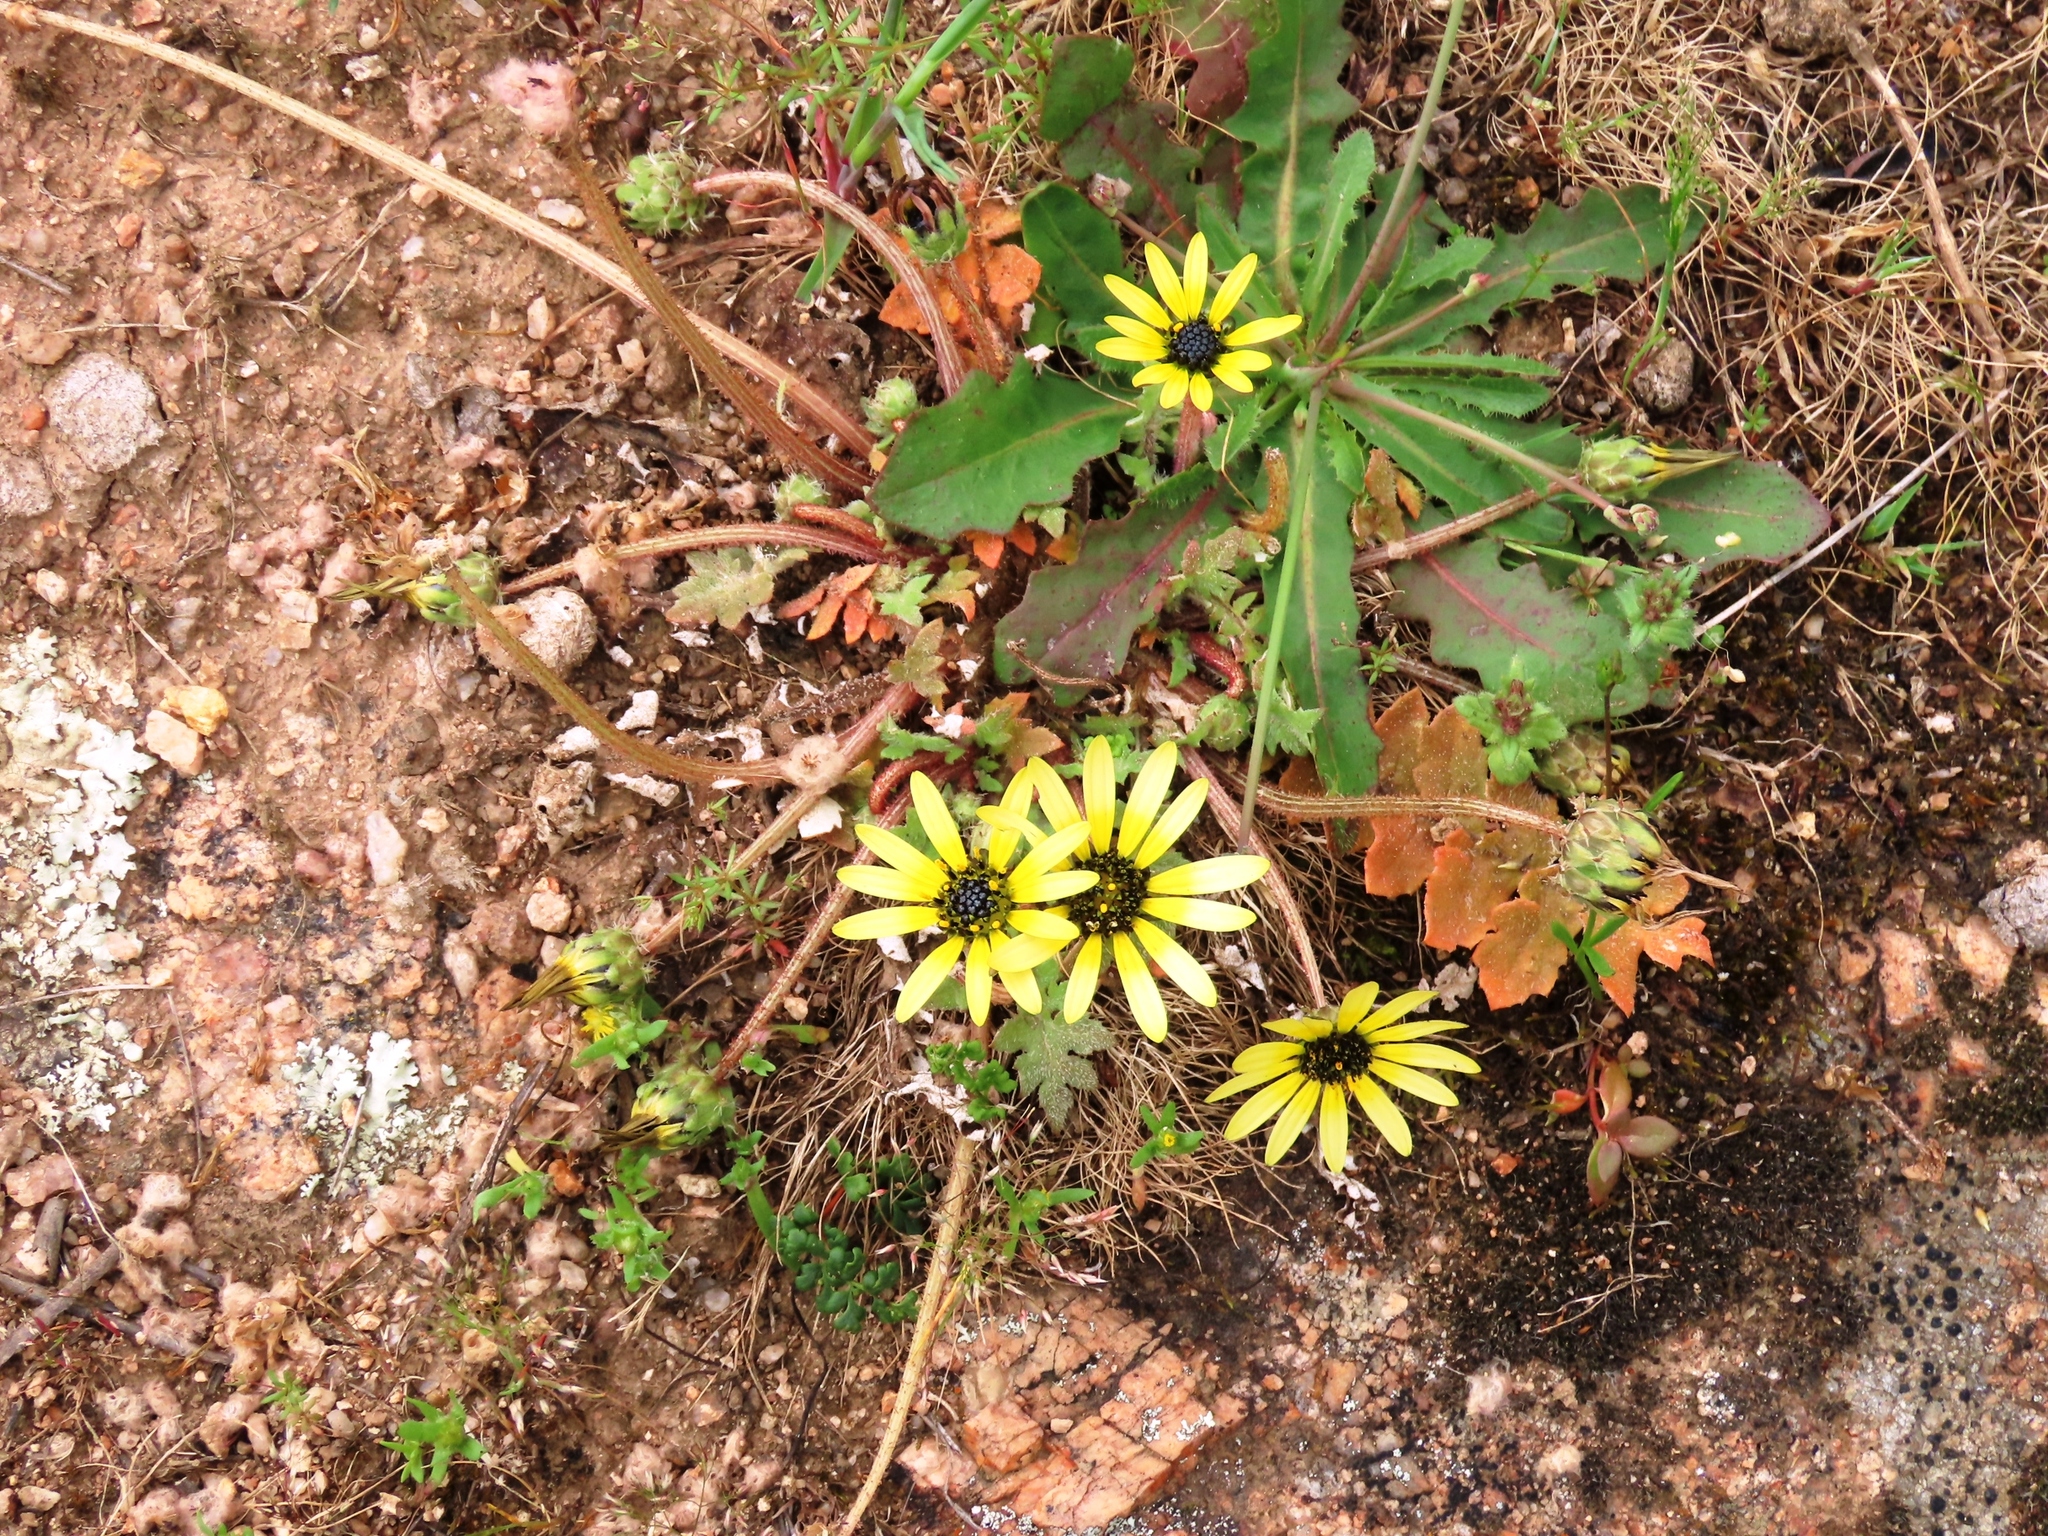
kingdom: Plantae
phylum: Tracheophyta
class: Magnoliopsida
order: Asterales
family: Asteraceae
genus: Arctotheca
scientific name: Arctotheca calendula
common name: Capeweed
